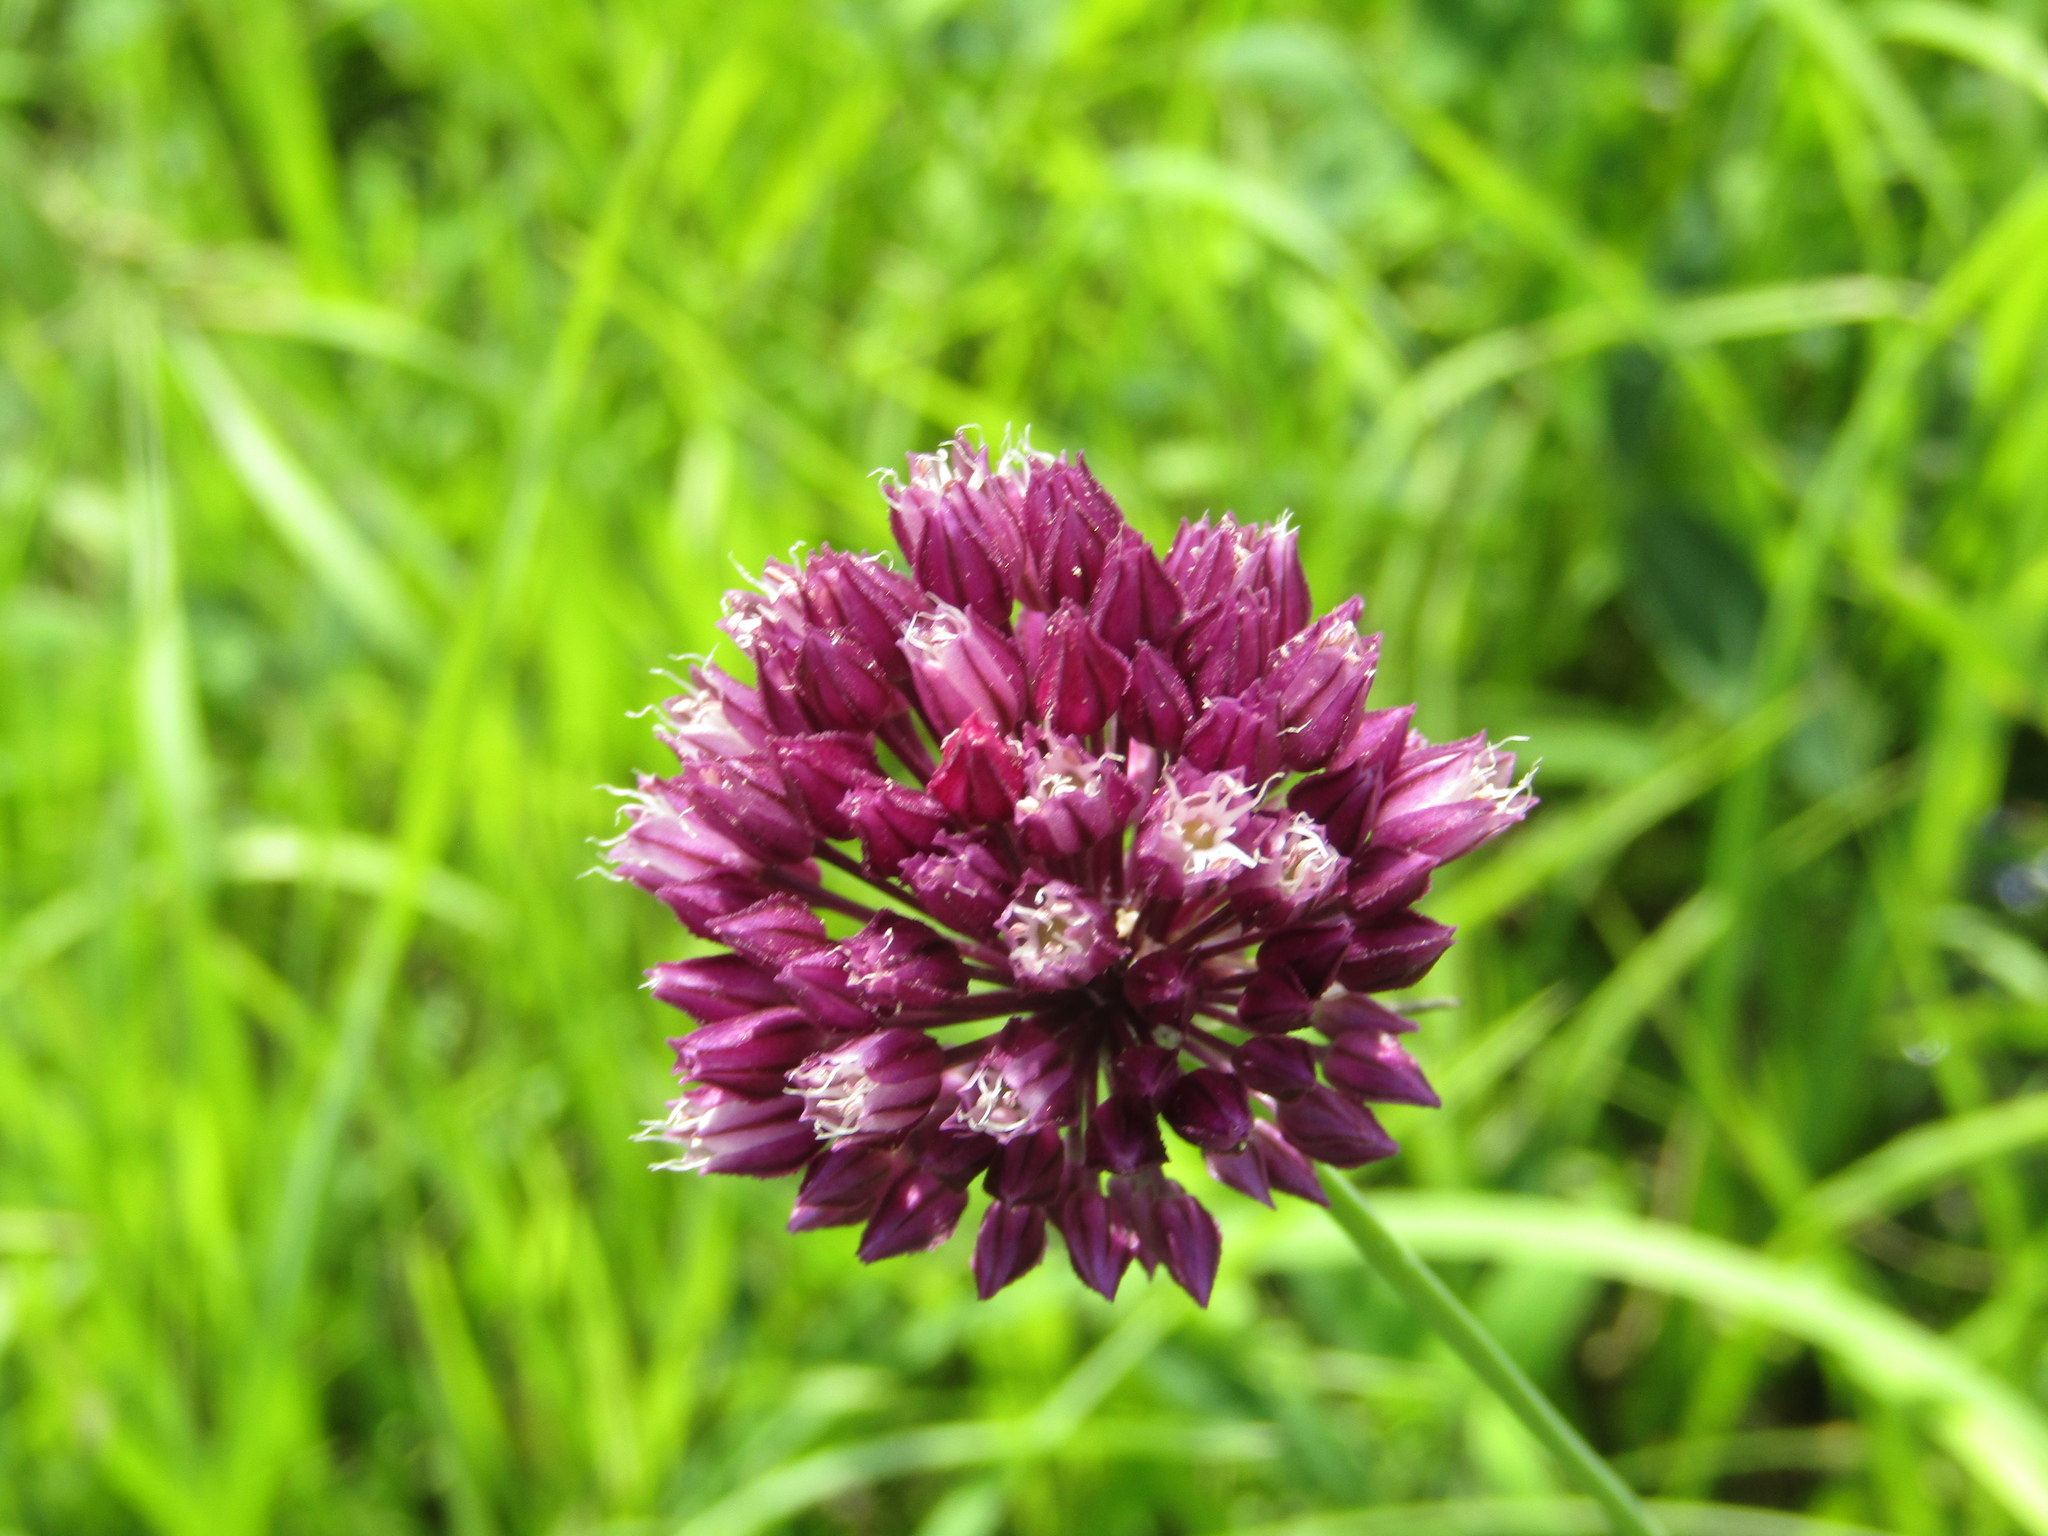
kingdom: Plantae
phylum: Tracheophyta
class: Liliopsida
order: Asparagales
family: Amaryllidaceae
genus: Allium
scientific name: Allium rotundum
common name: Sand leek
